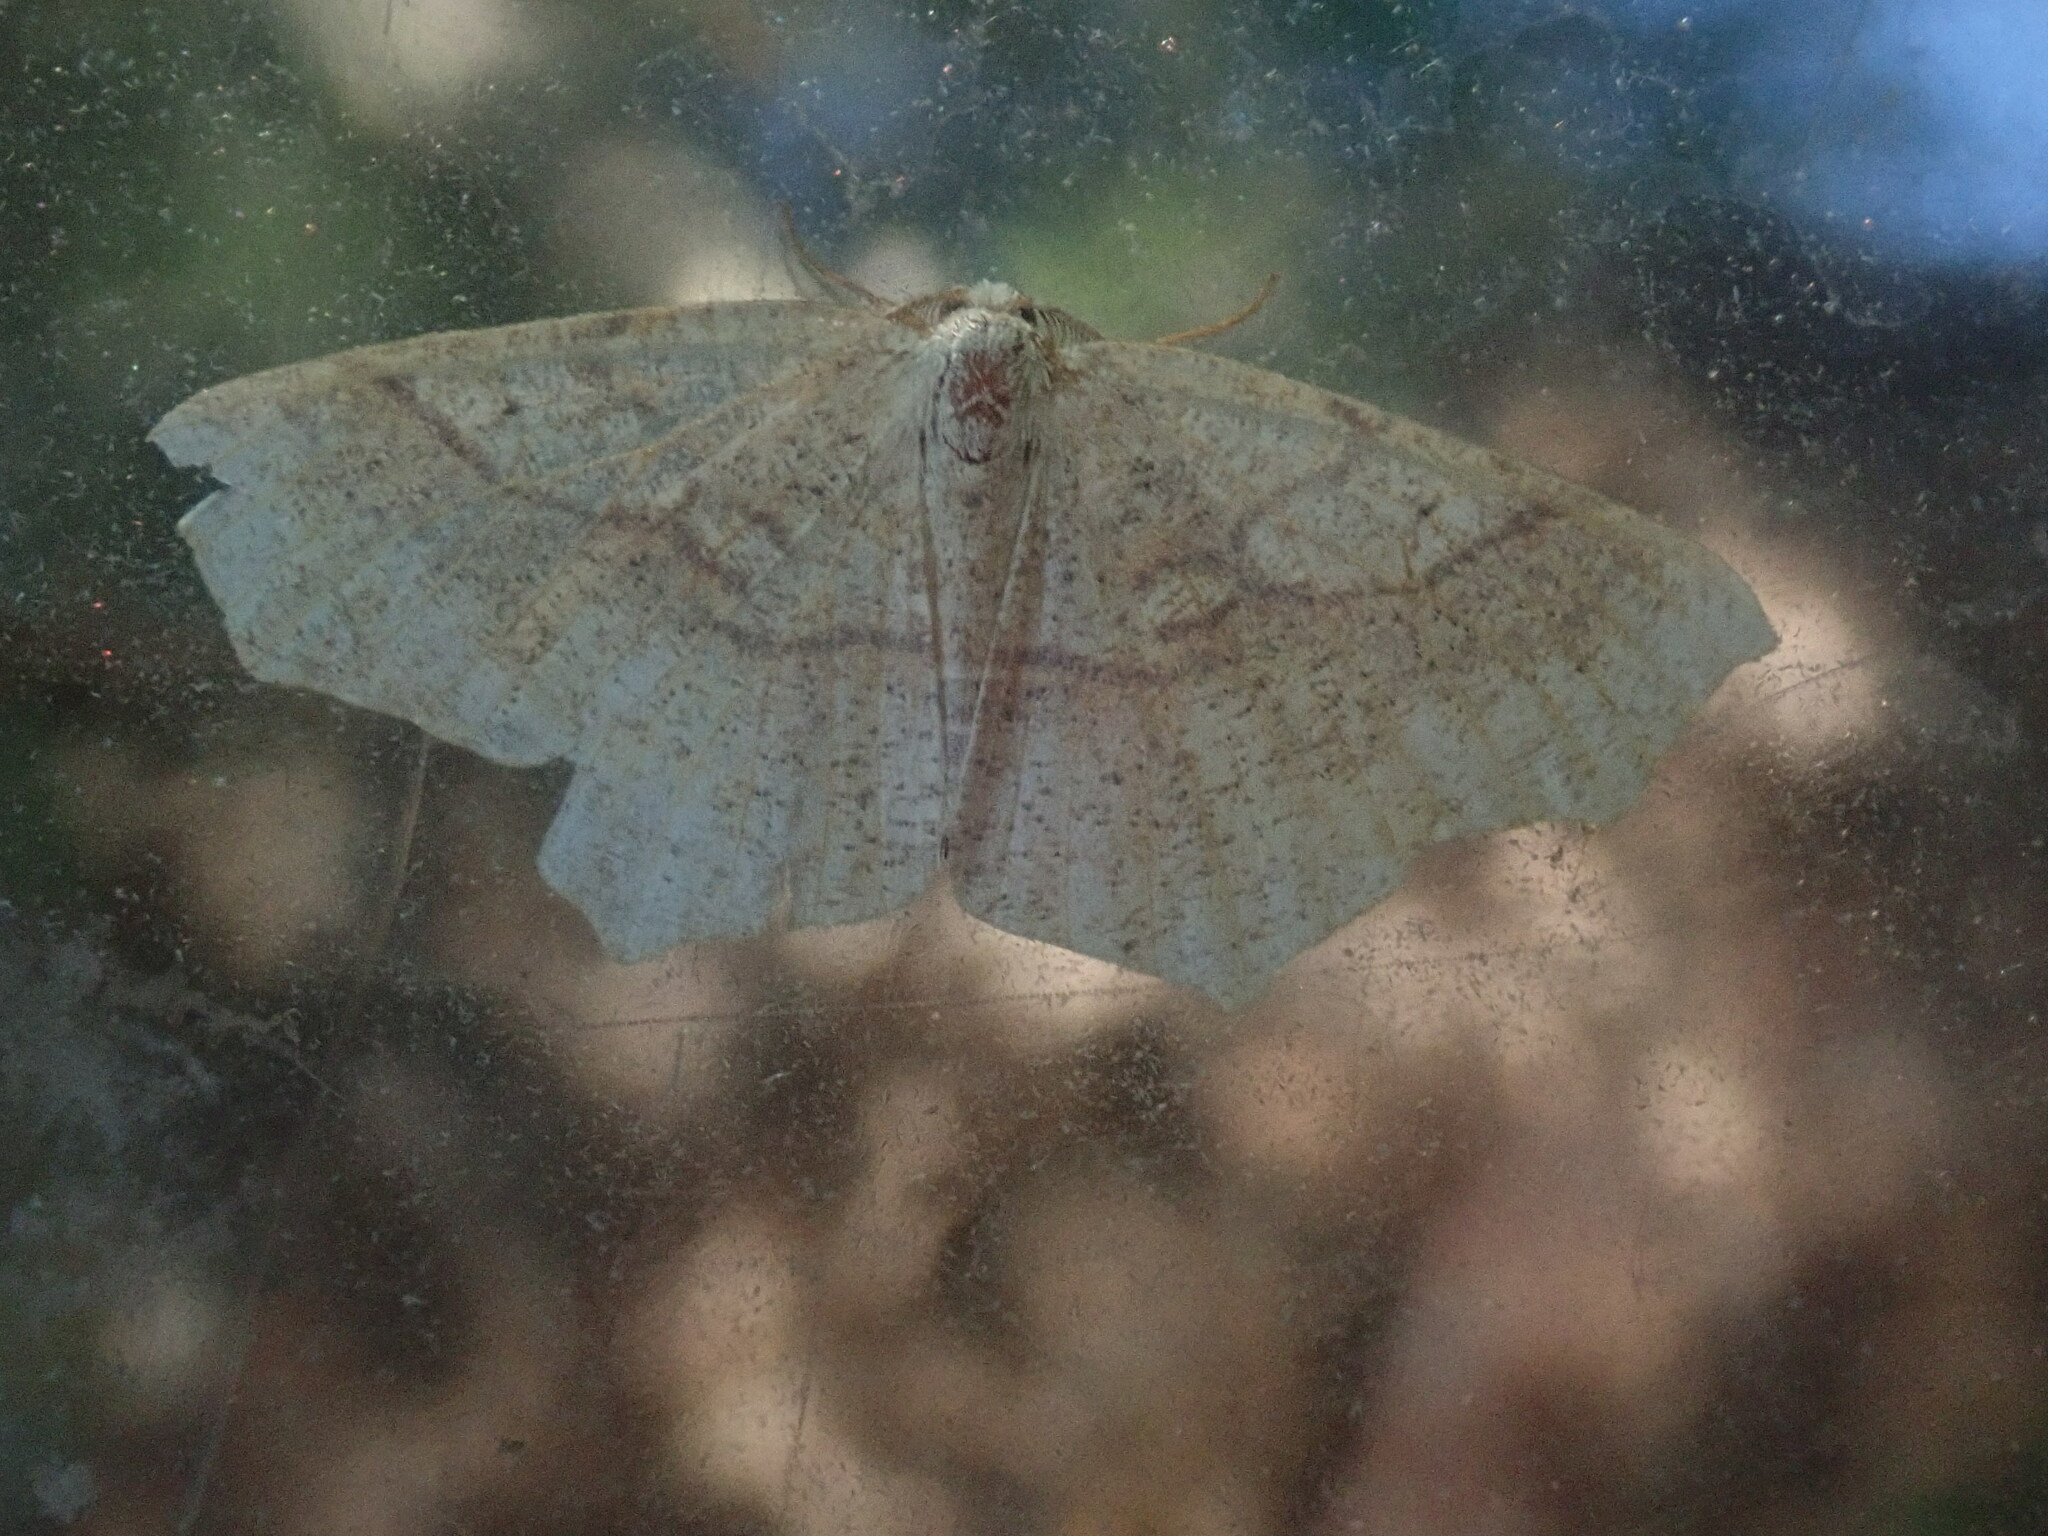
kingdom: Animalia
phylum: Arthropoda
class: Insecta
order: Lepidoptera
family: Geometridae
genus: Besma
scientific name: Besma quercivoraria
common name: Oak besma
